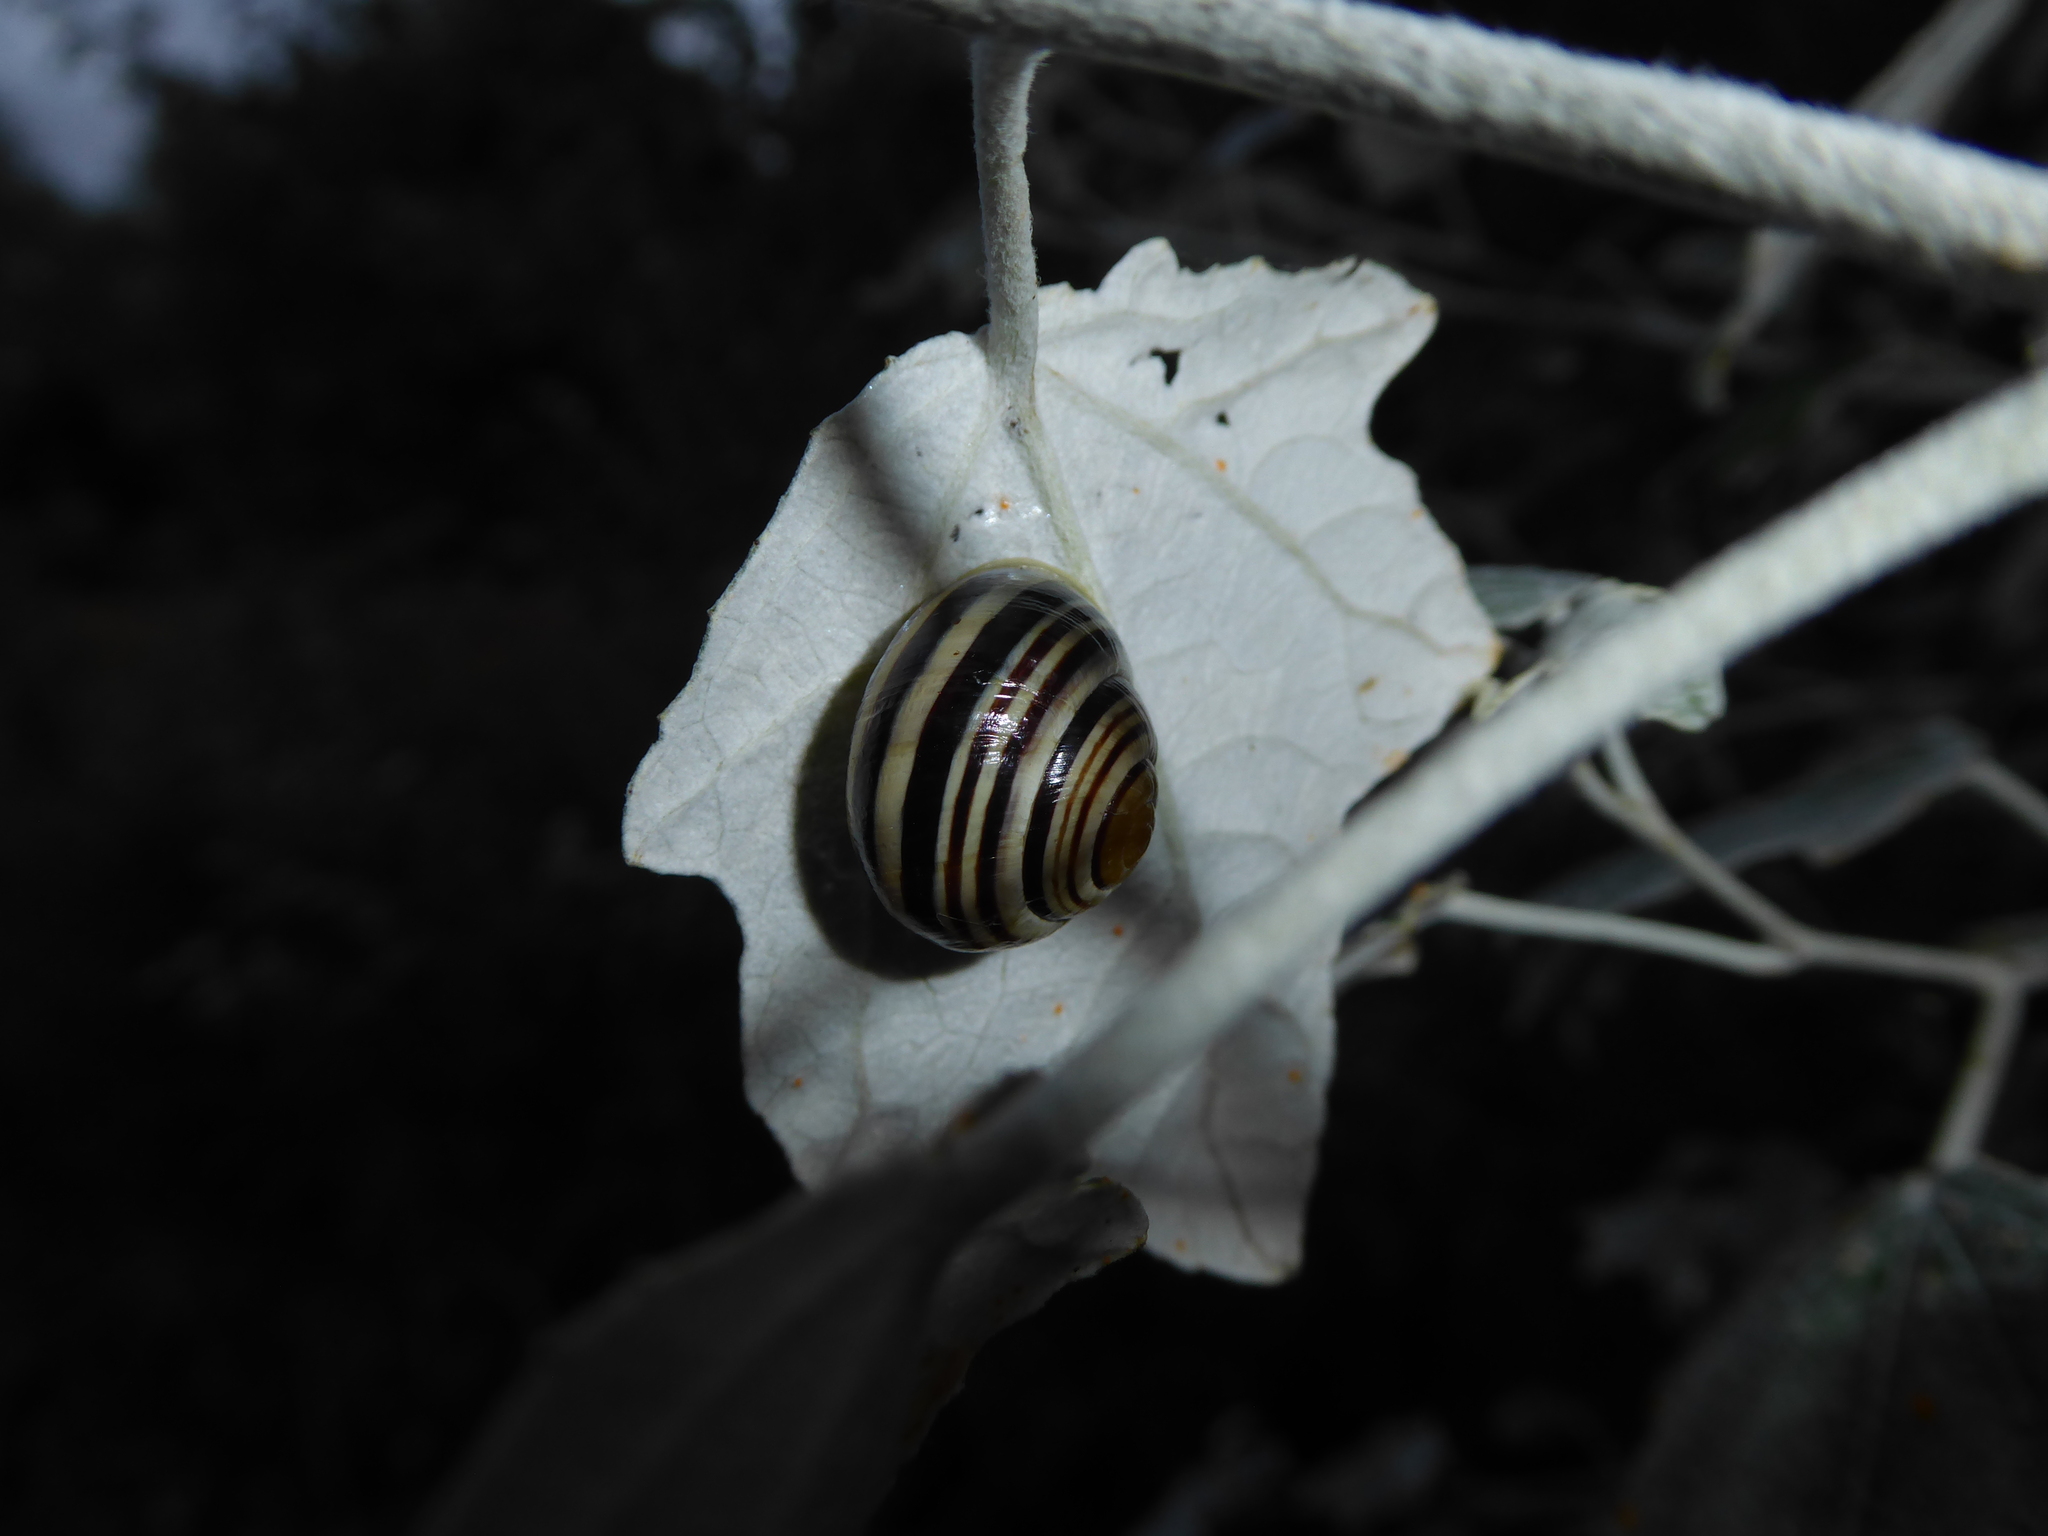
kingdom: Animalia
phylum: Mollusca
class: Gastropoda
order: Stylommatophora
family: Helicidae
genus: Cepaea
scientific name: Cepaea hortensis
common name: White-lip gardensnail
